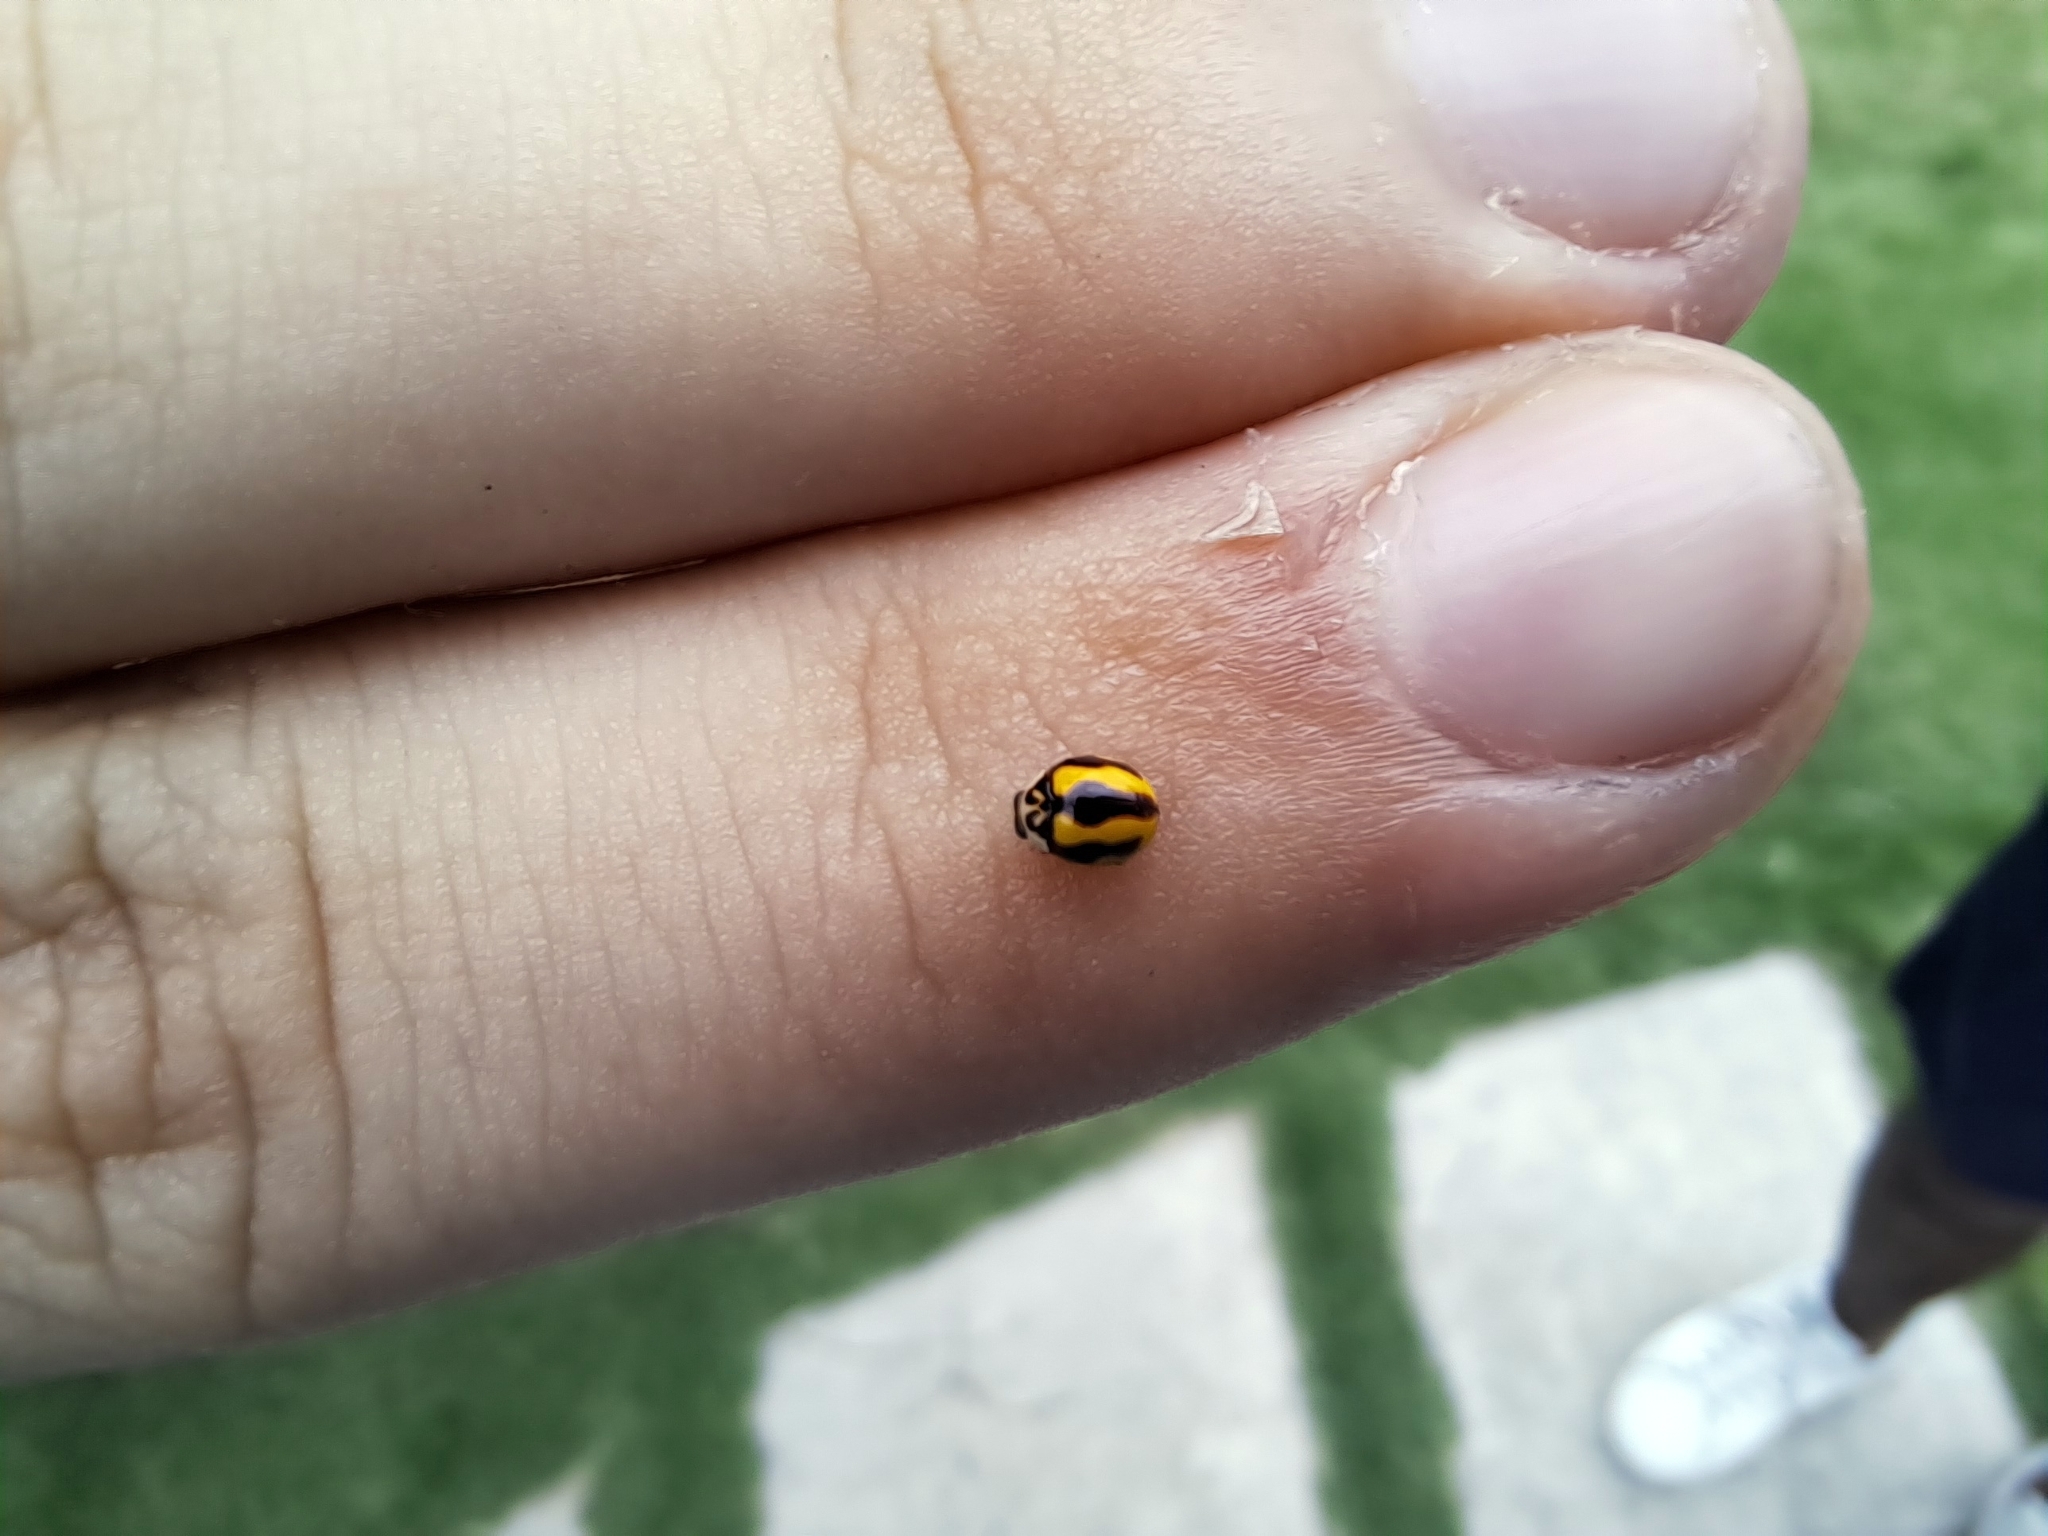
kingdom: Animalia
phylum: Arthropoda
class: Insecta
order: Coleoptera
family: Coccinellidae
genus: Cyrea
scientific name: Cyrea
